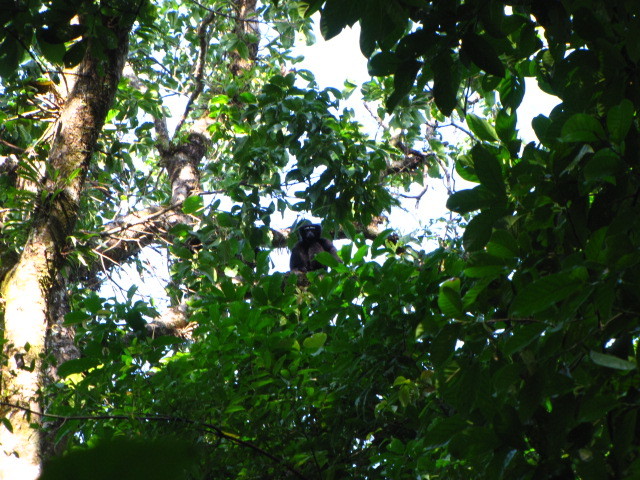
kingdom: Animalia
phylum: Chordata
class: Mammalia
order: Primates
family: Hylobatidae
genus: Hoolock
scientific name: Hoolock hoolock
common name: Western hoolock gibbon
